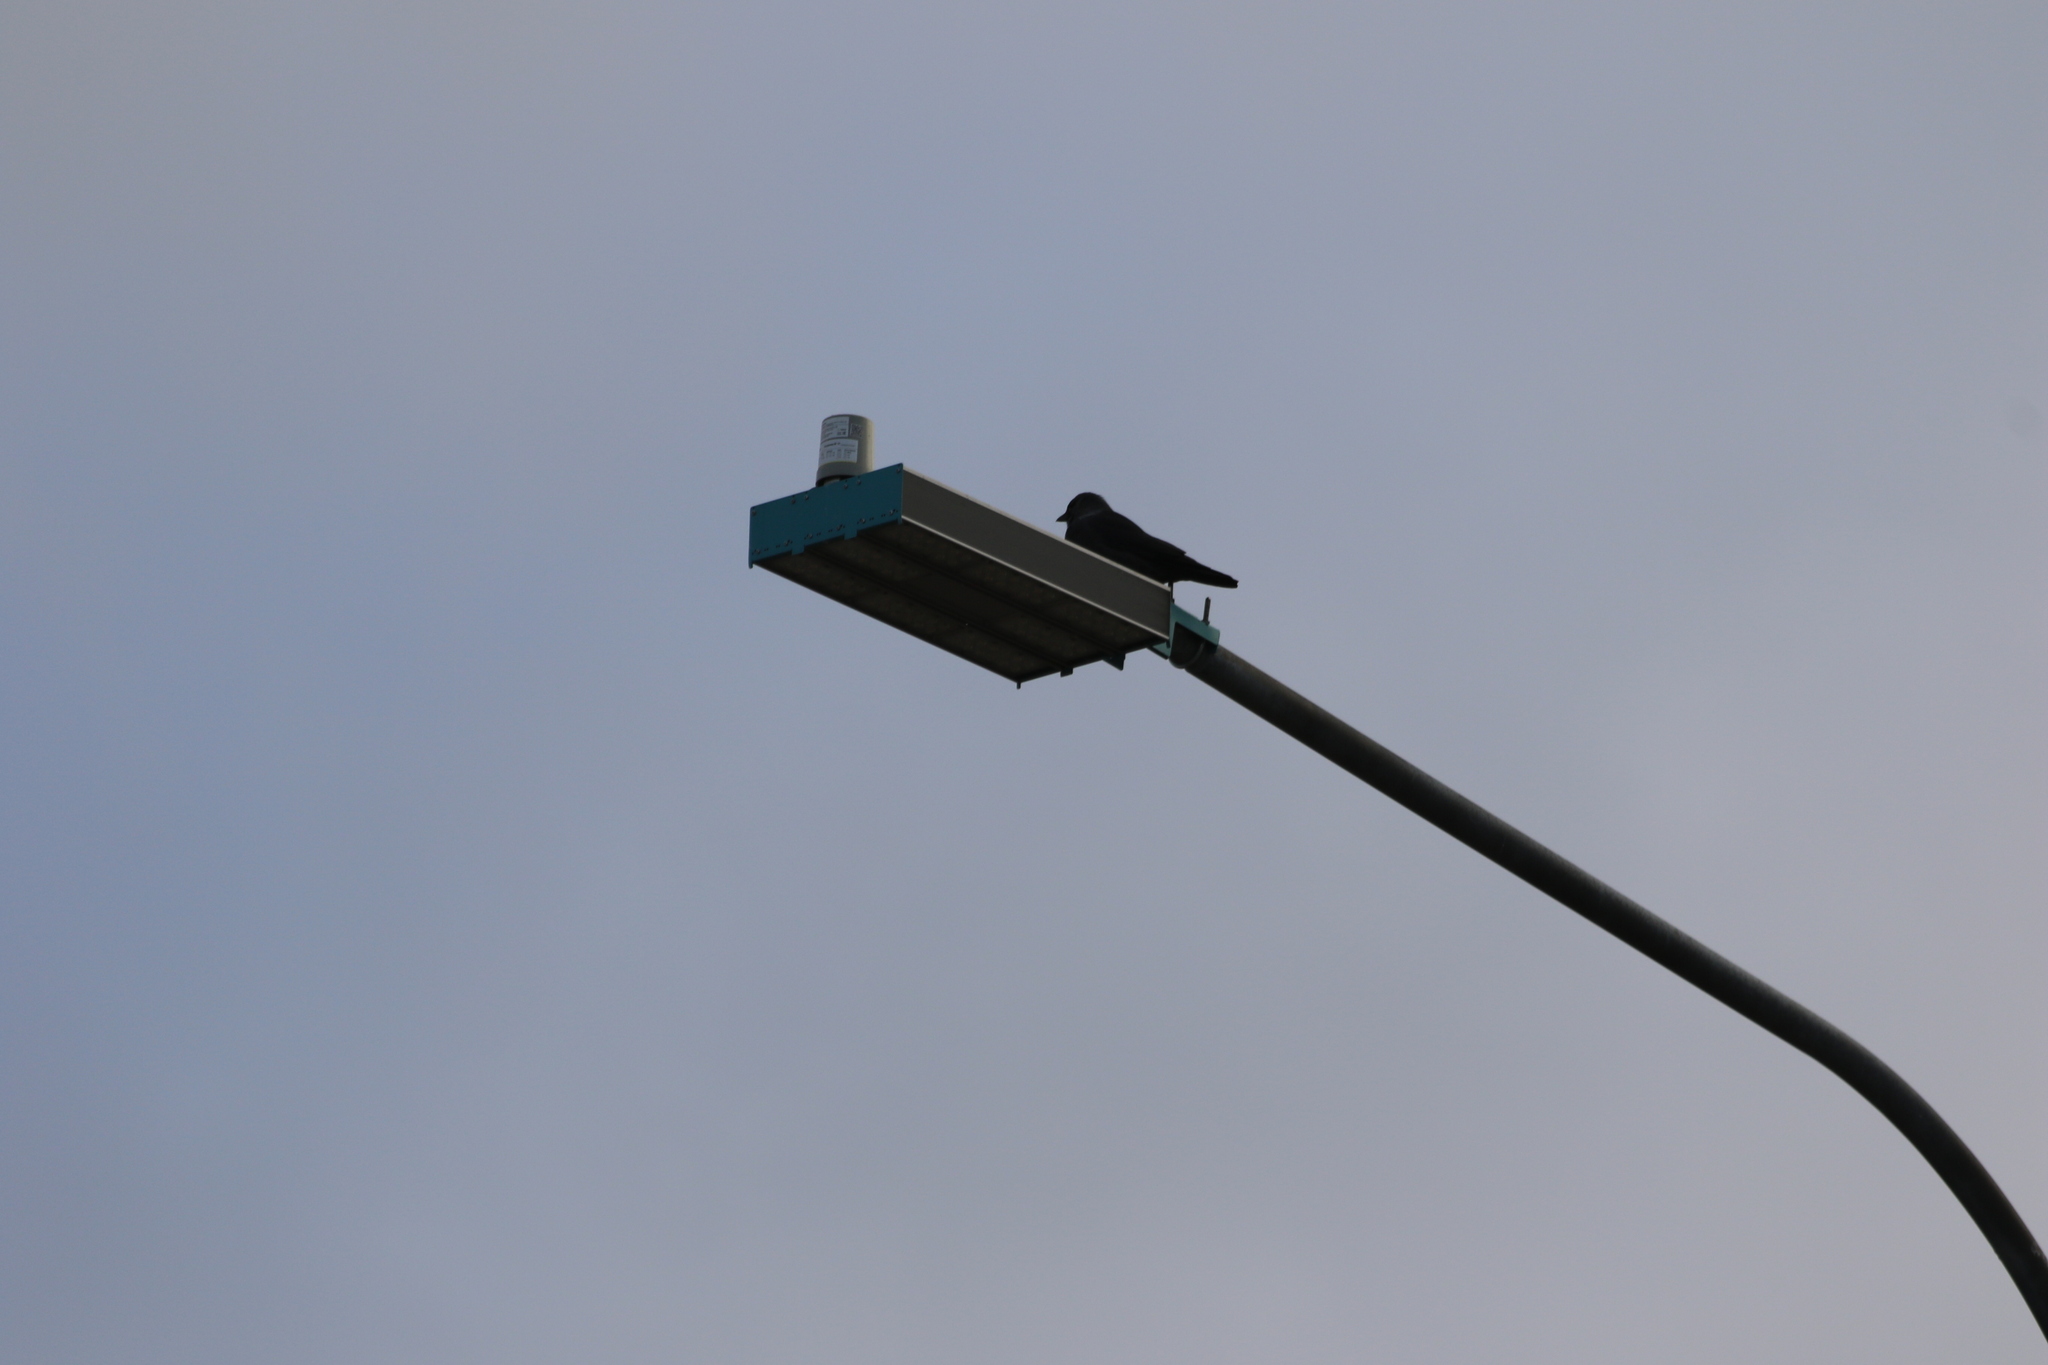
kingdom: Animalia
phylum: Chordata
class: Aves
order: Passeriformes
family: Corvidae
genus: Coloeus
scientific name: Coloeus monedula
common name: Western jackdaw
